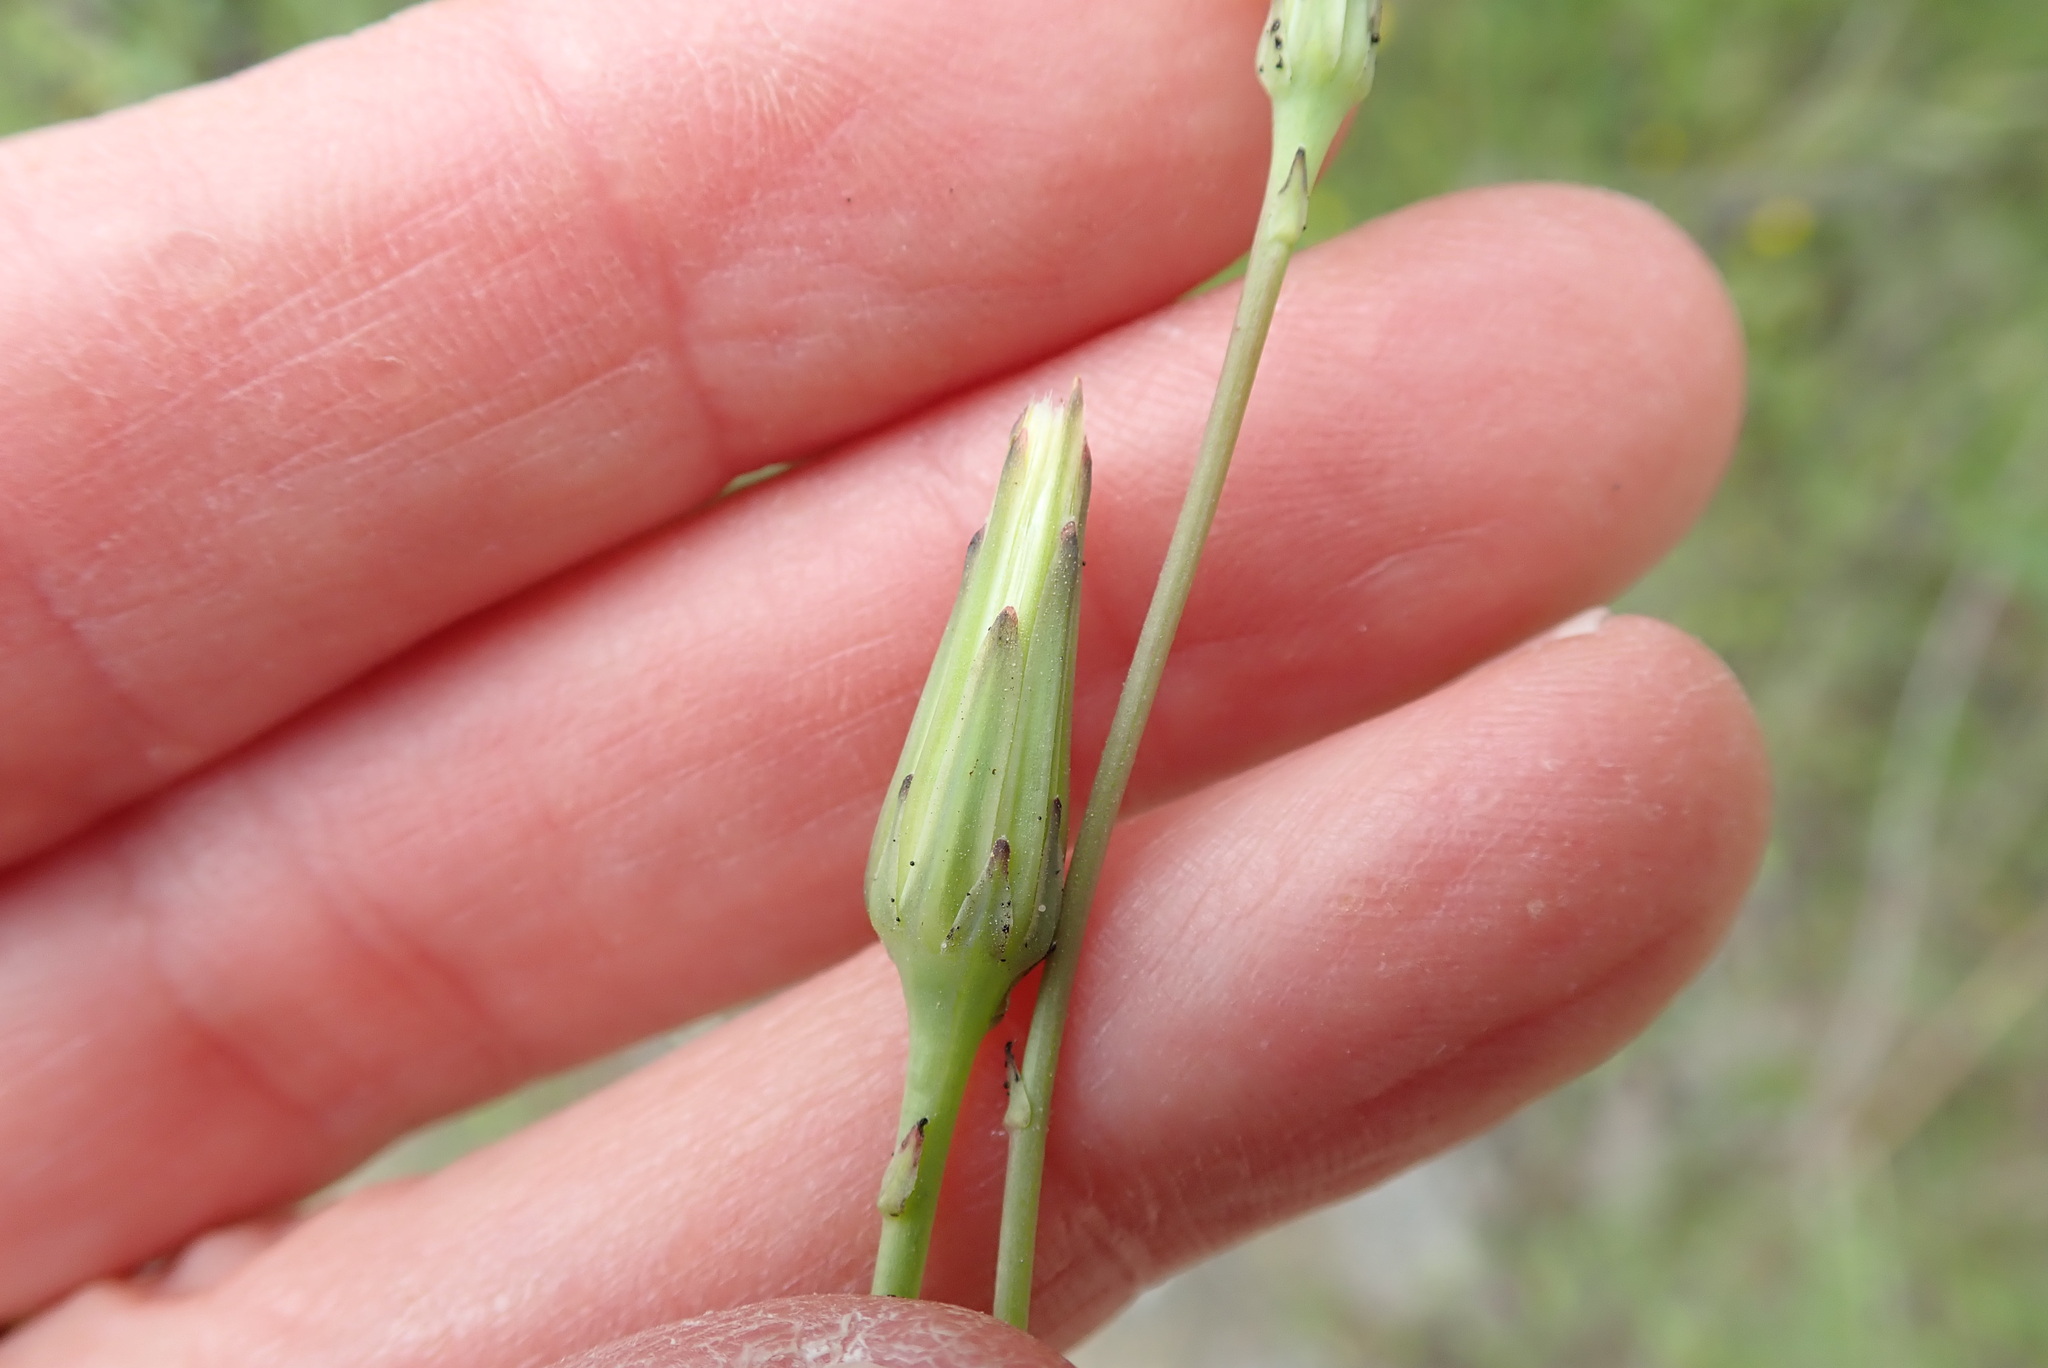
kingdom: Plantae
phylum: Tracheophyta
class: Magnoliopsida
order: Asterales
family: Asteraceae
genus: Hypochaeris
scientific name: Hypochaeris glabra
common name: Smooth catsear
